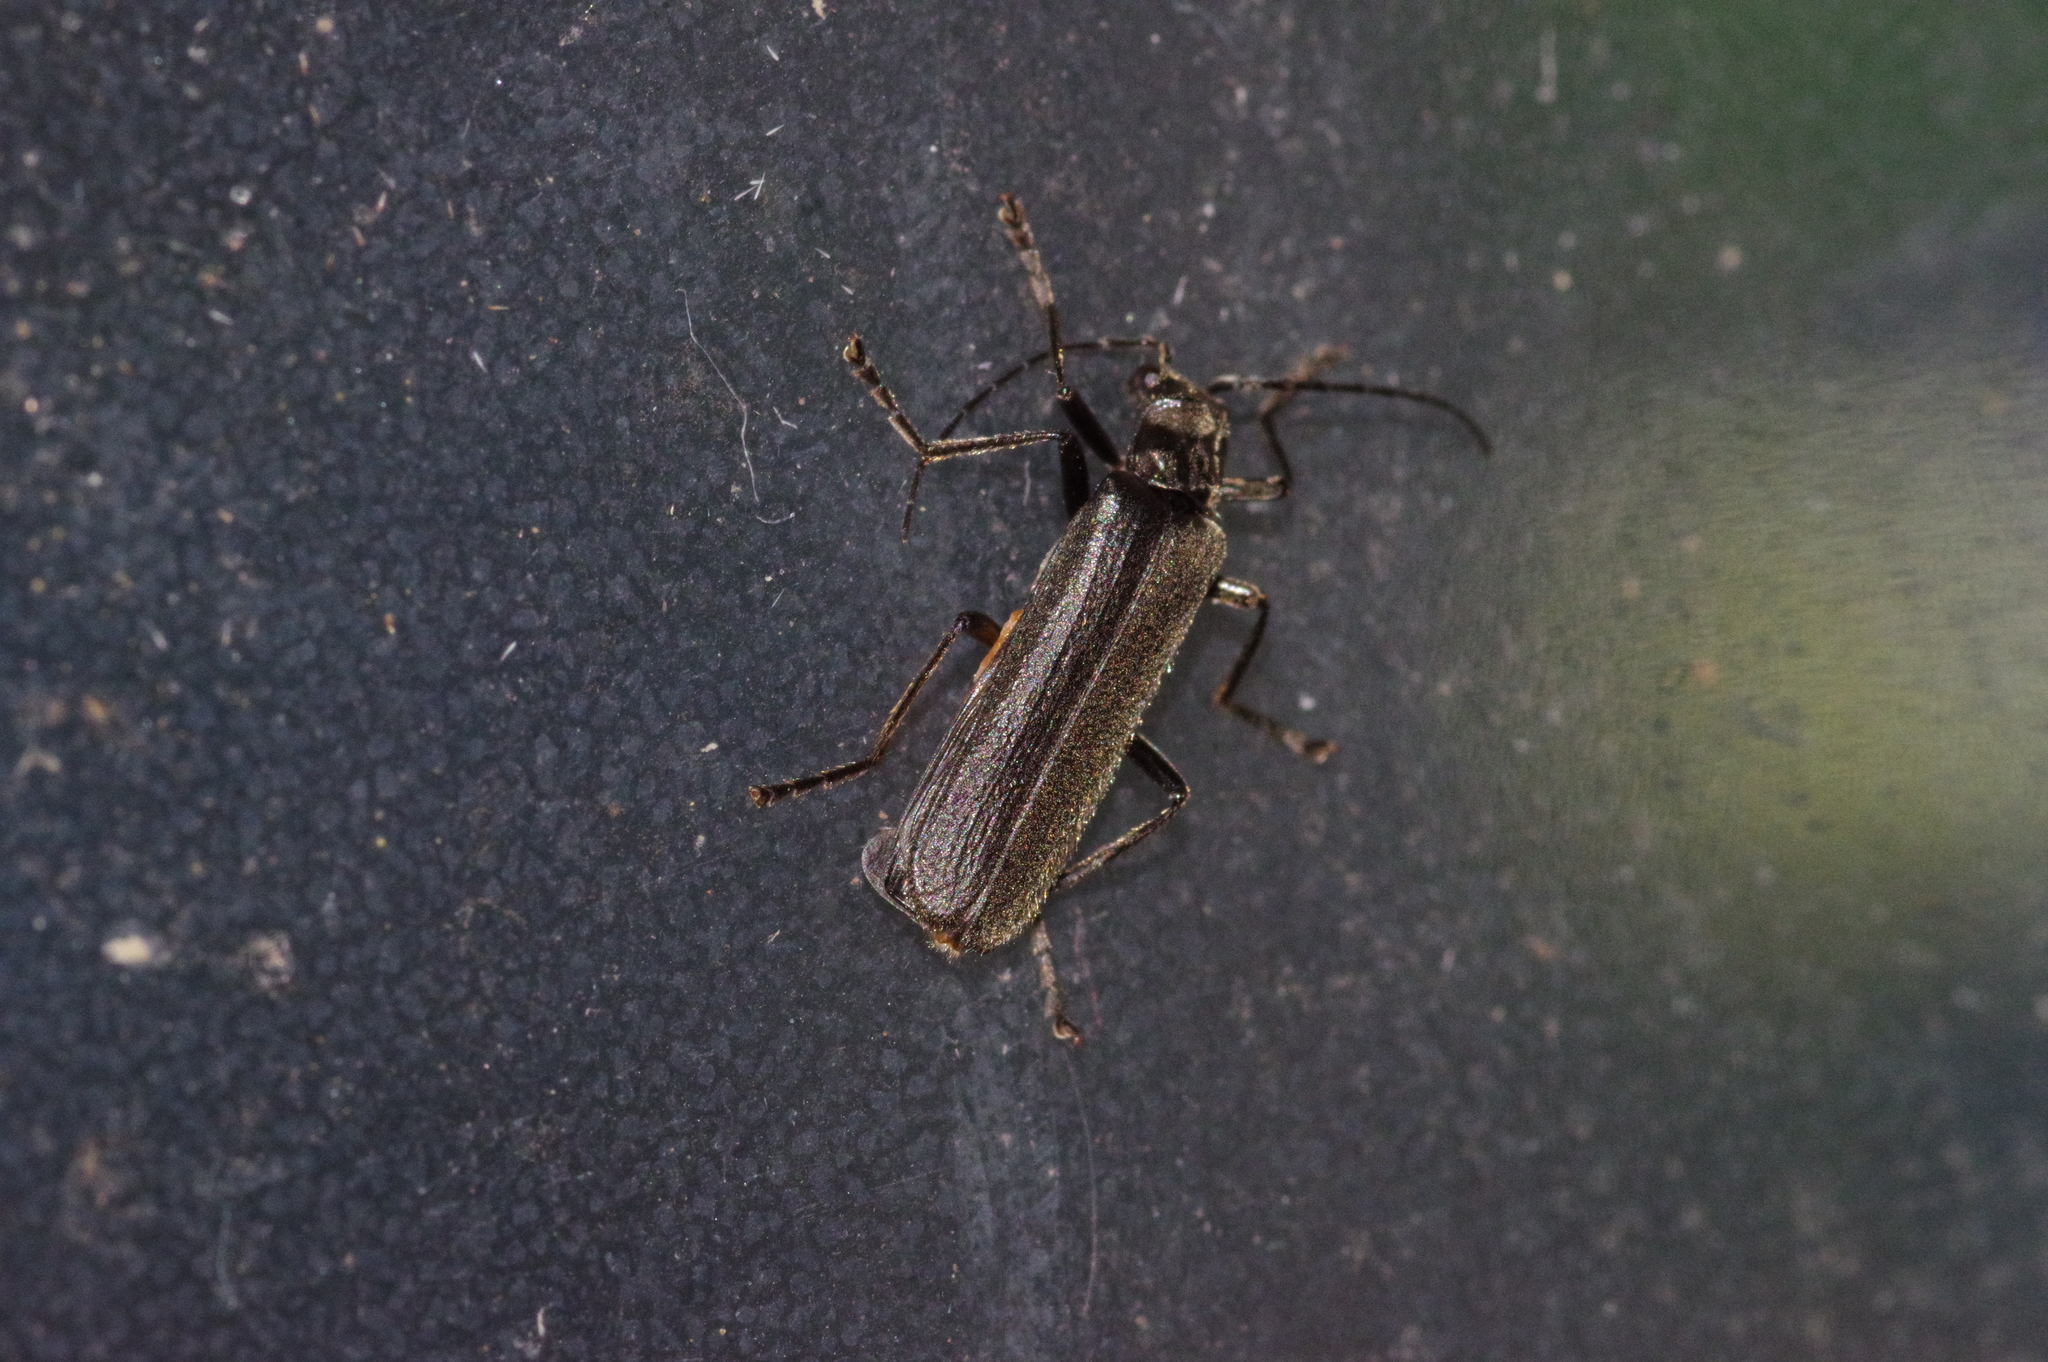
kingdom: Animalia
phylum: Arthropoda
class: Insecta
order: Coleoptera
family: Cantharidae
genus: Lycocerus
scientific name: Lycocerus
